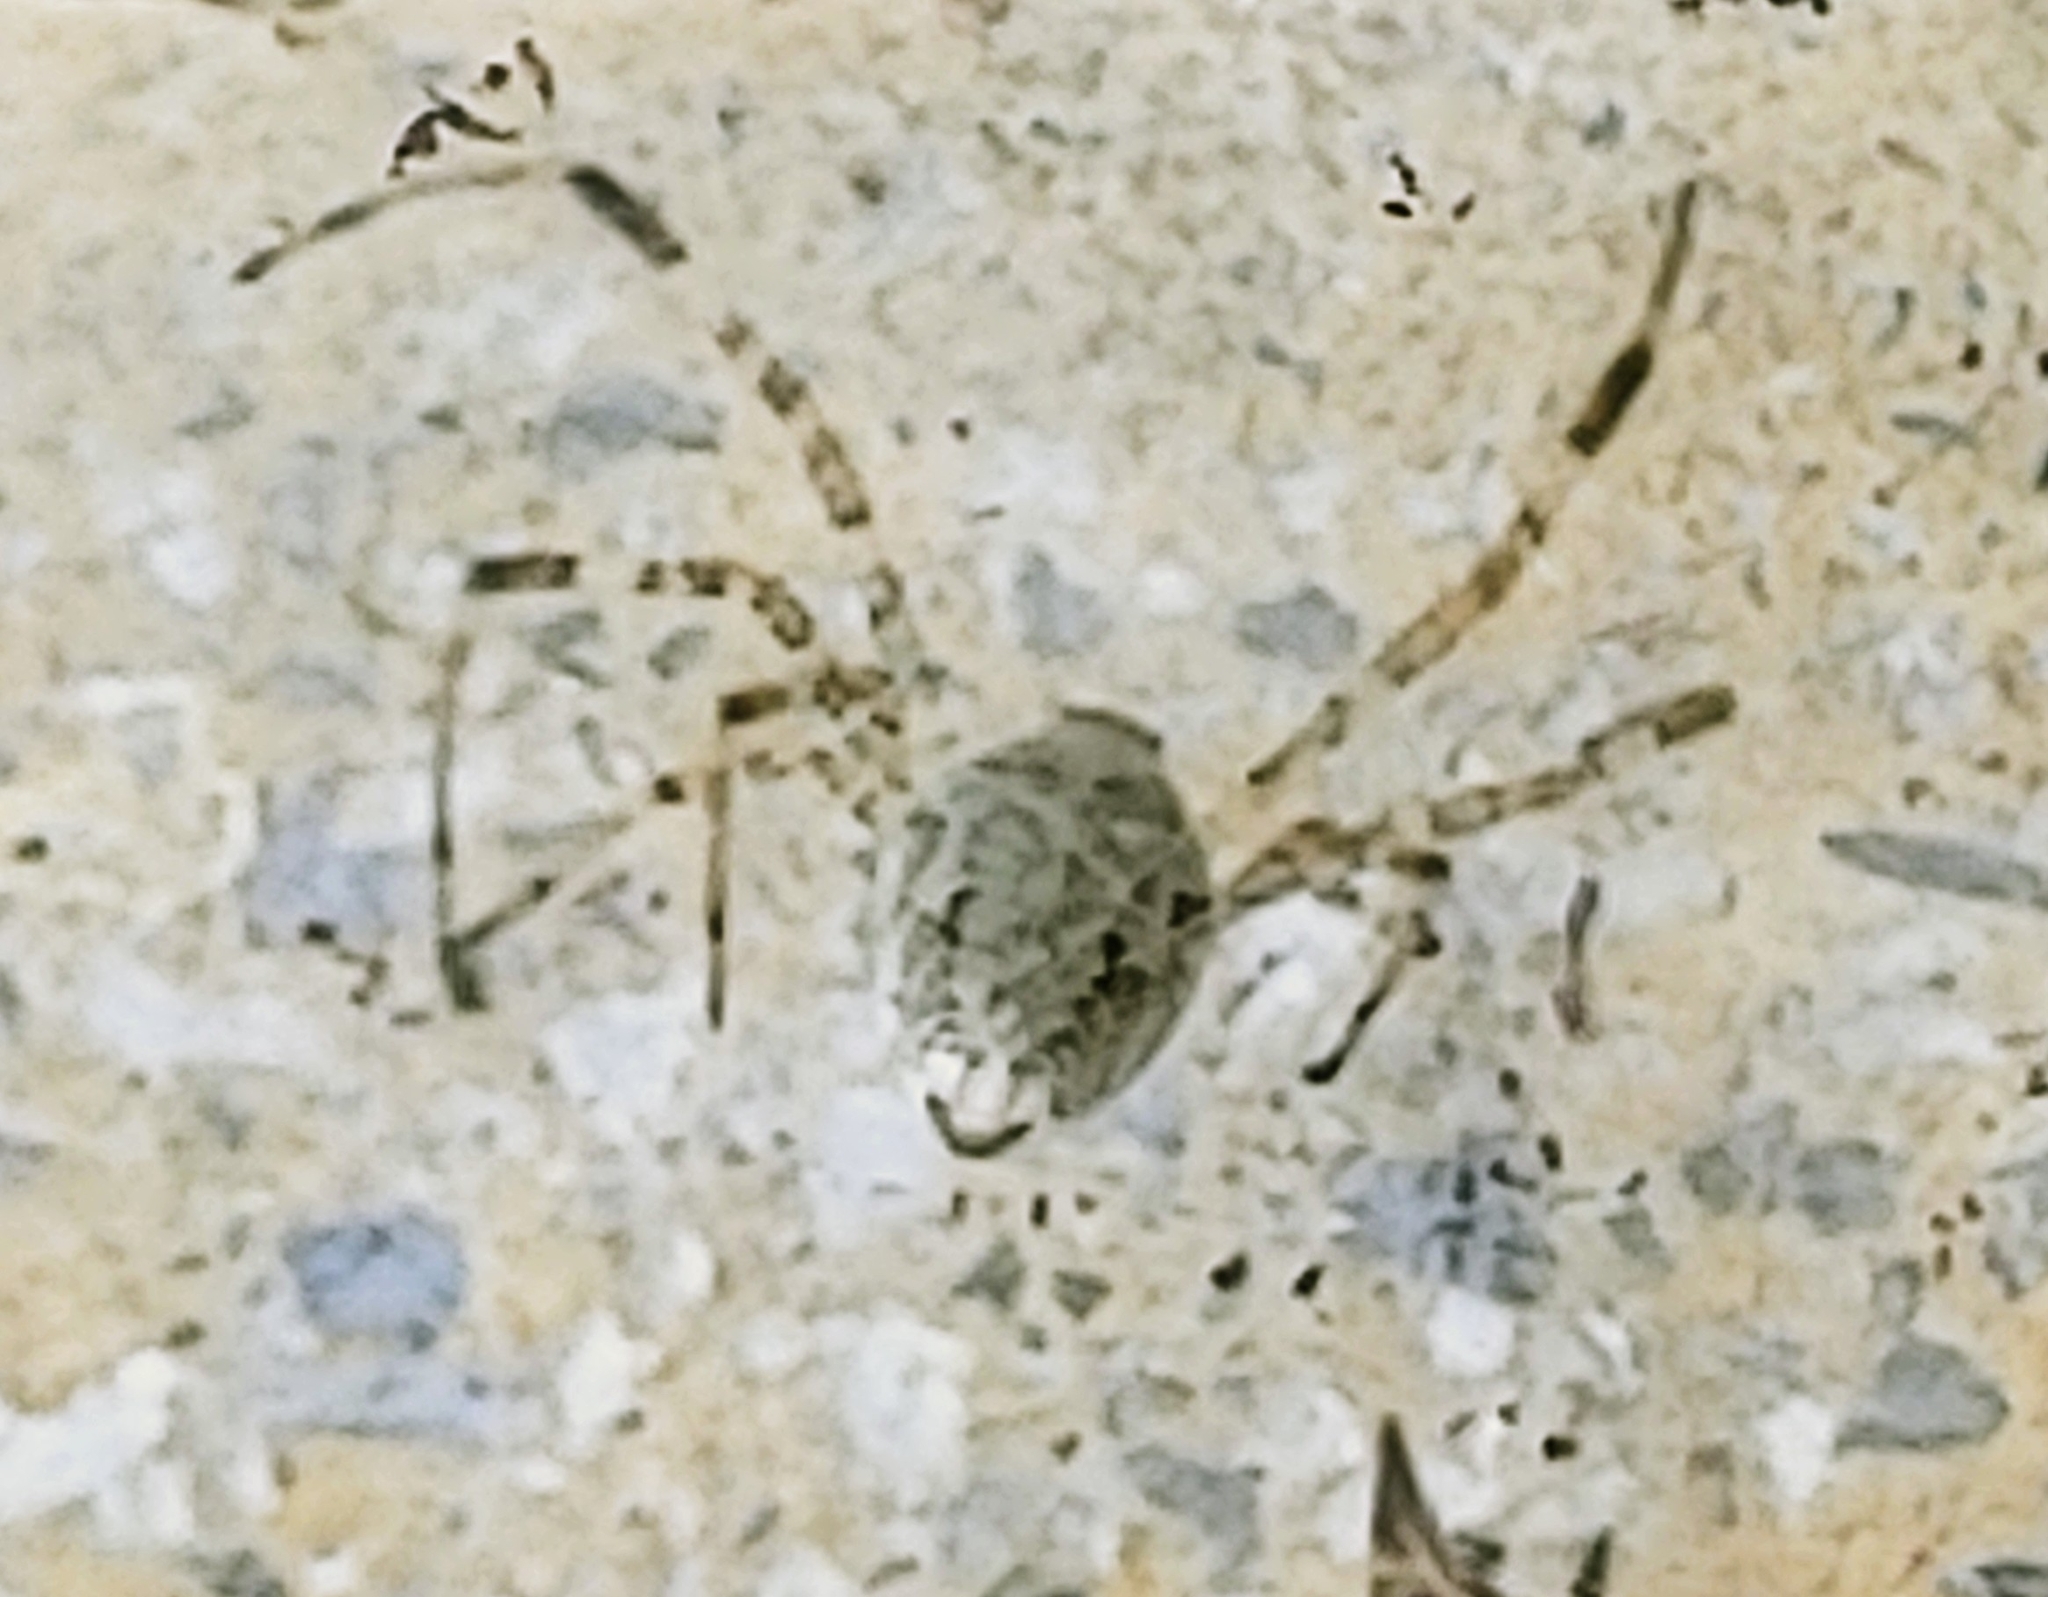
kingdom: Animalia
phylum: Arthropoda
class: Arachnida
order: Araneae
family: Araneidae
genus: Nephilingis
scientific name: Nephilingis cruentata
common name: African hermit spider
